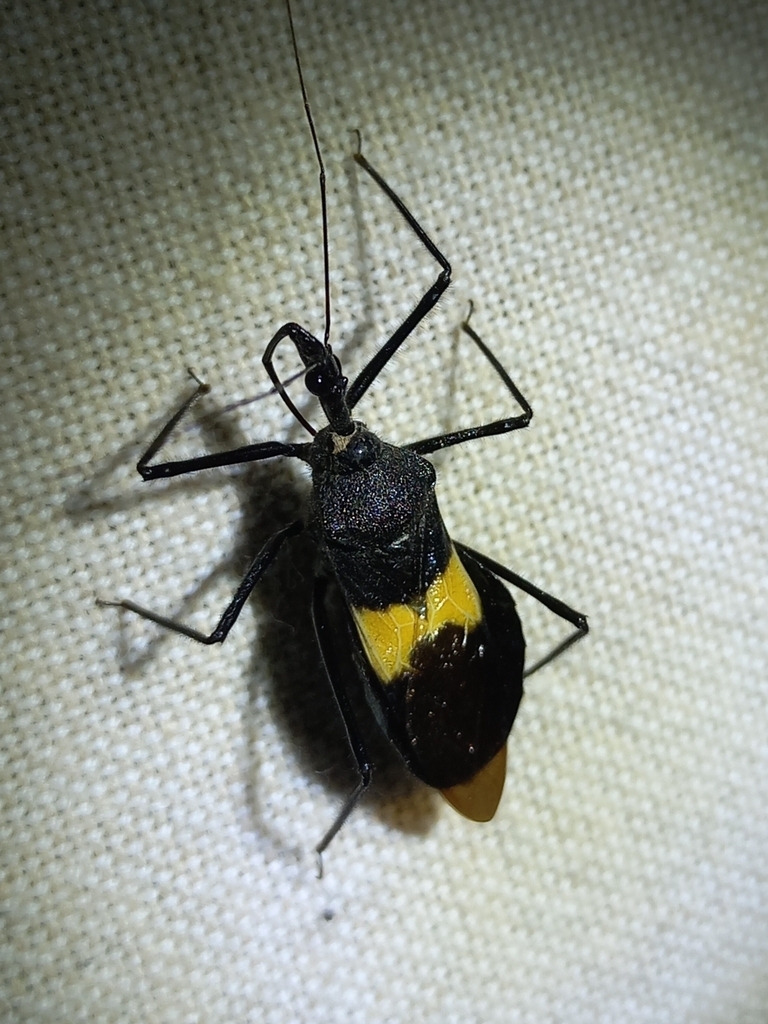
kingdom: Animalia
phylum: Arthropoda
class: Insecta
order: Hemiptera
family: Reduviidae
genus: Sycanus
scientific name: Sycanus croceovittatus
